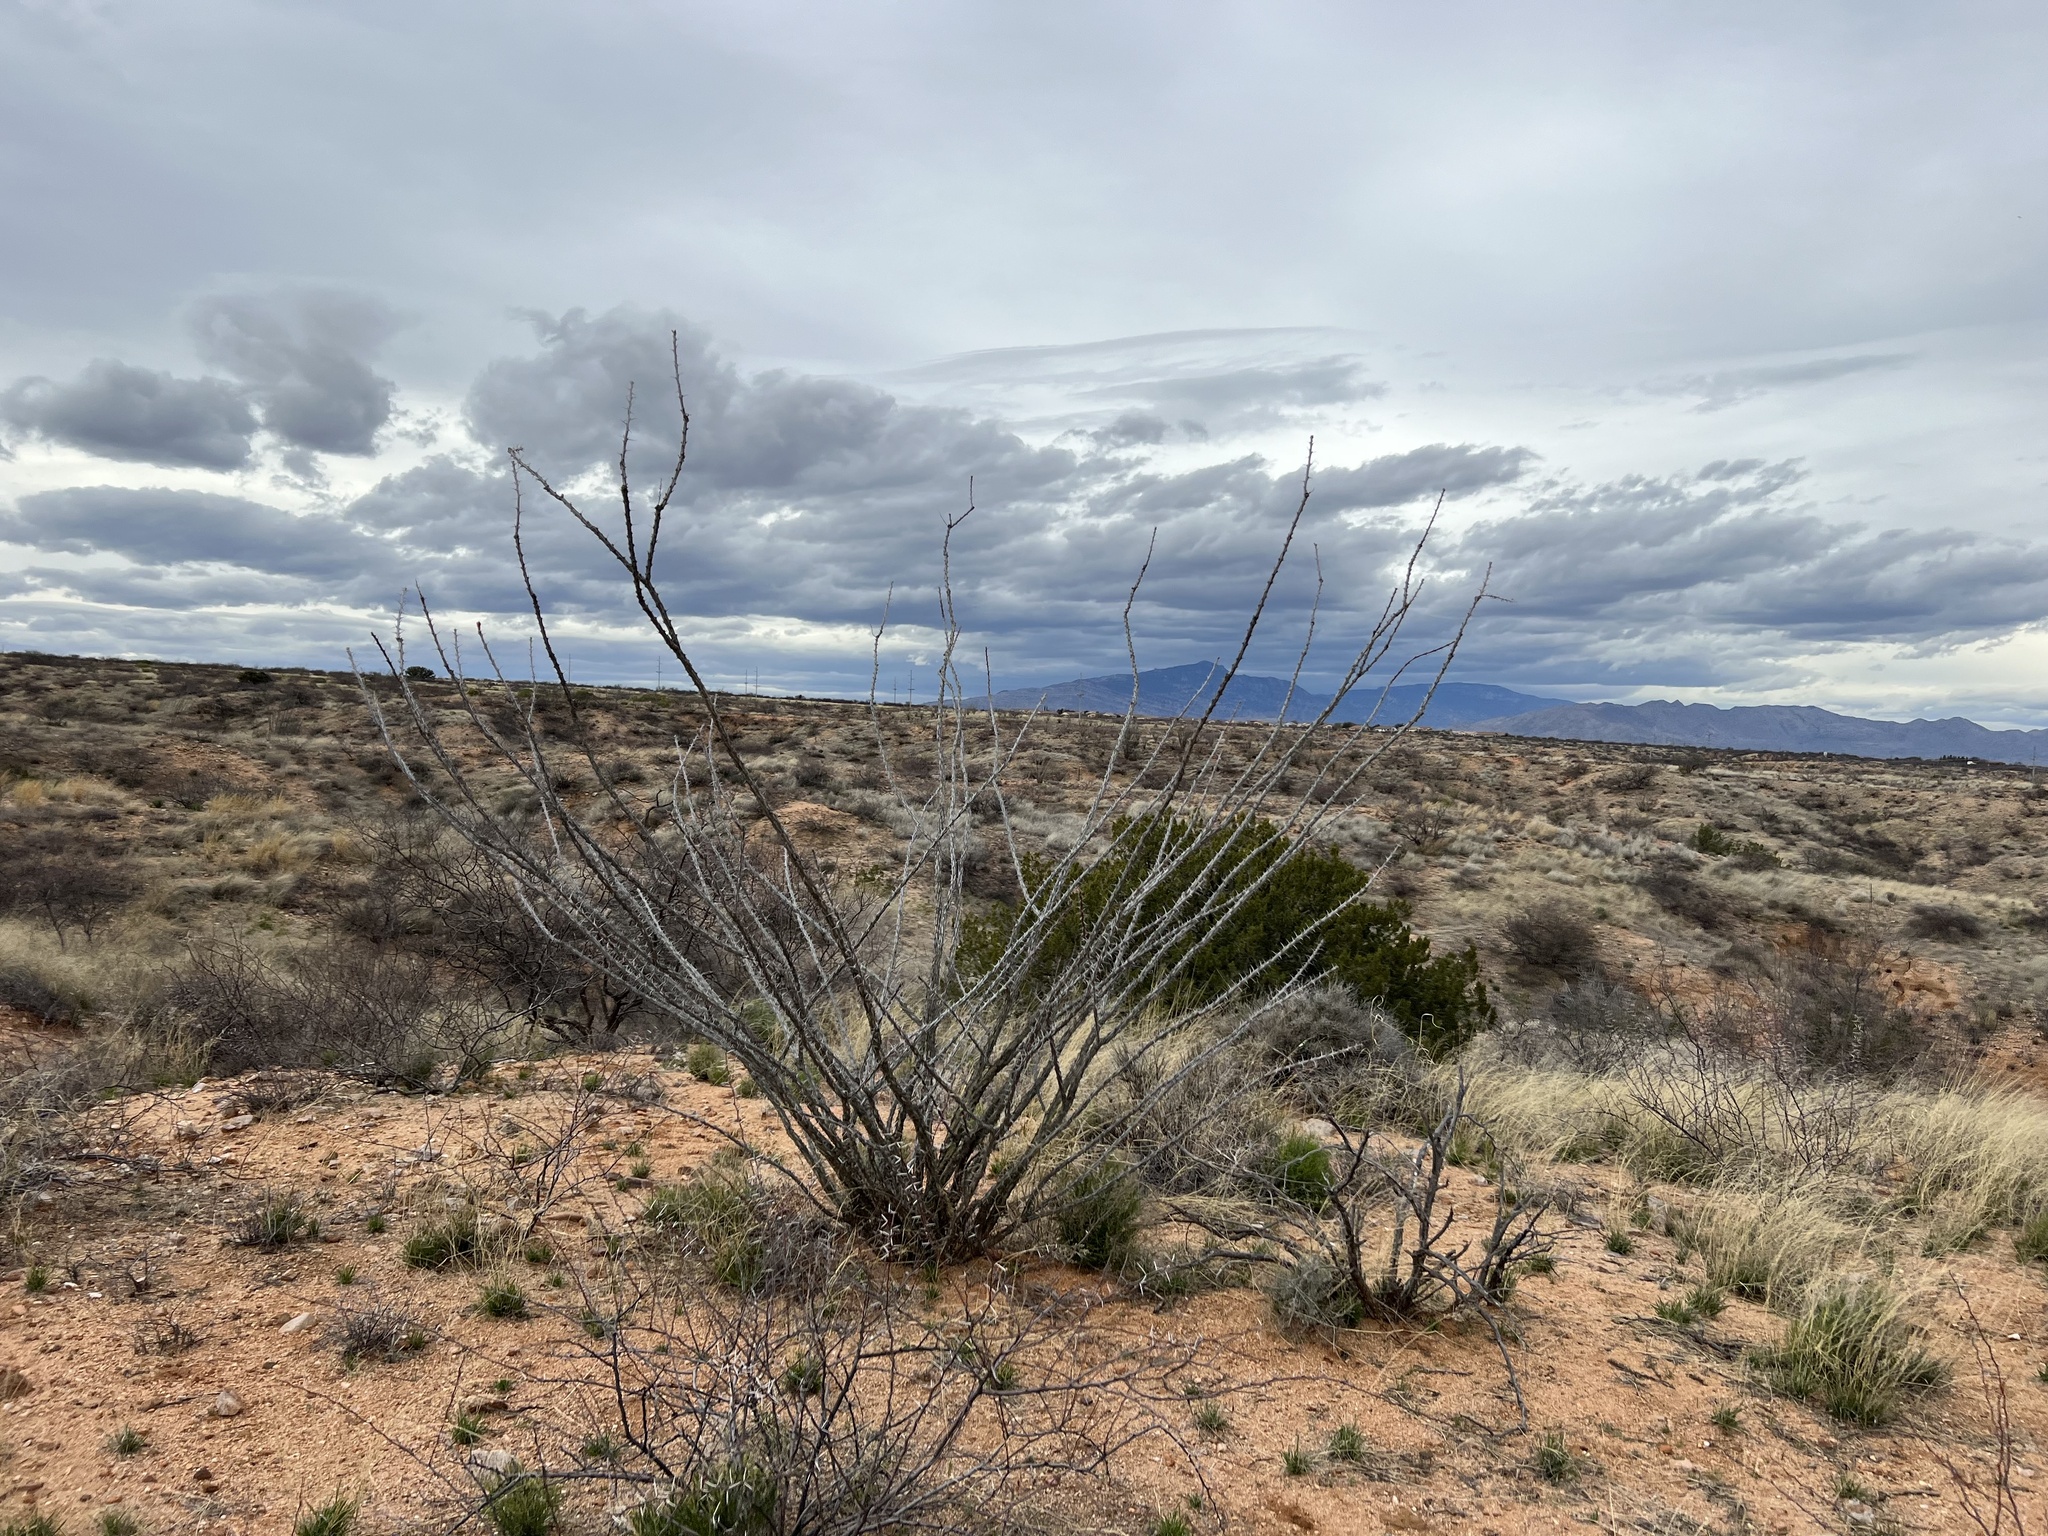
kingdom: Plantae
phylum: Tracheophyta
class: Magnoliopsida
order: Ericales
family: Fouquieriaceae
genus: Fouquieria
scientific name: Fouquieria splendens
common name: Vine-cactus
